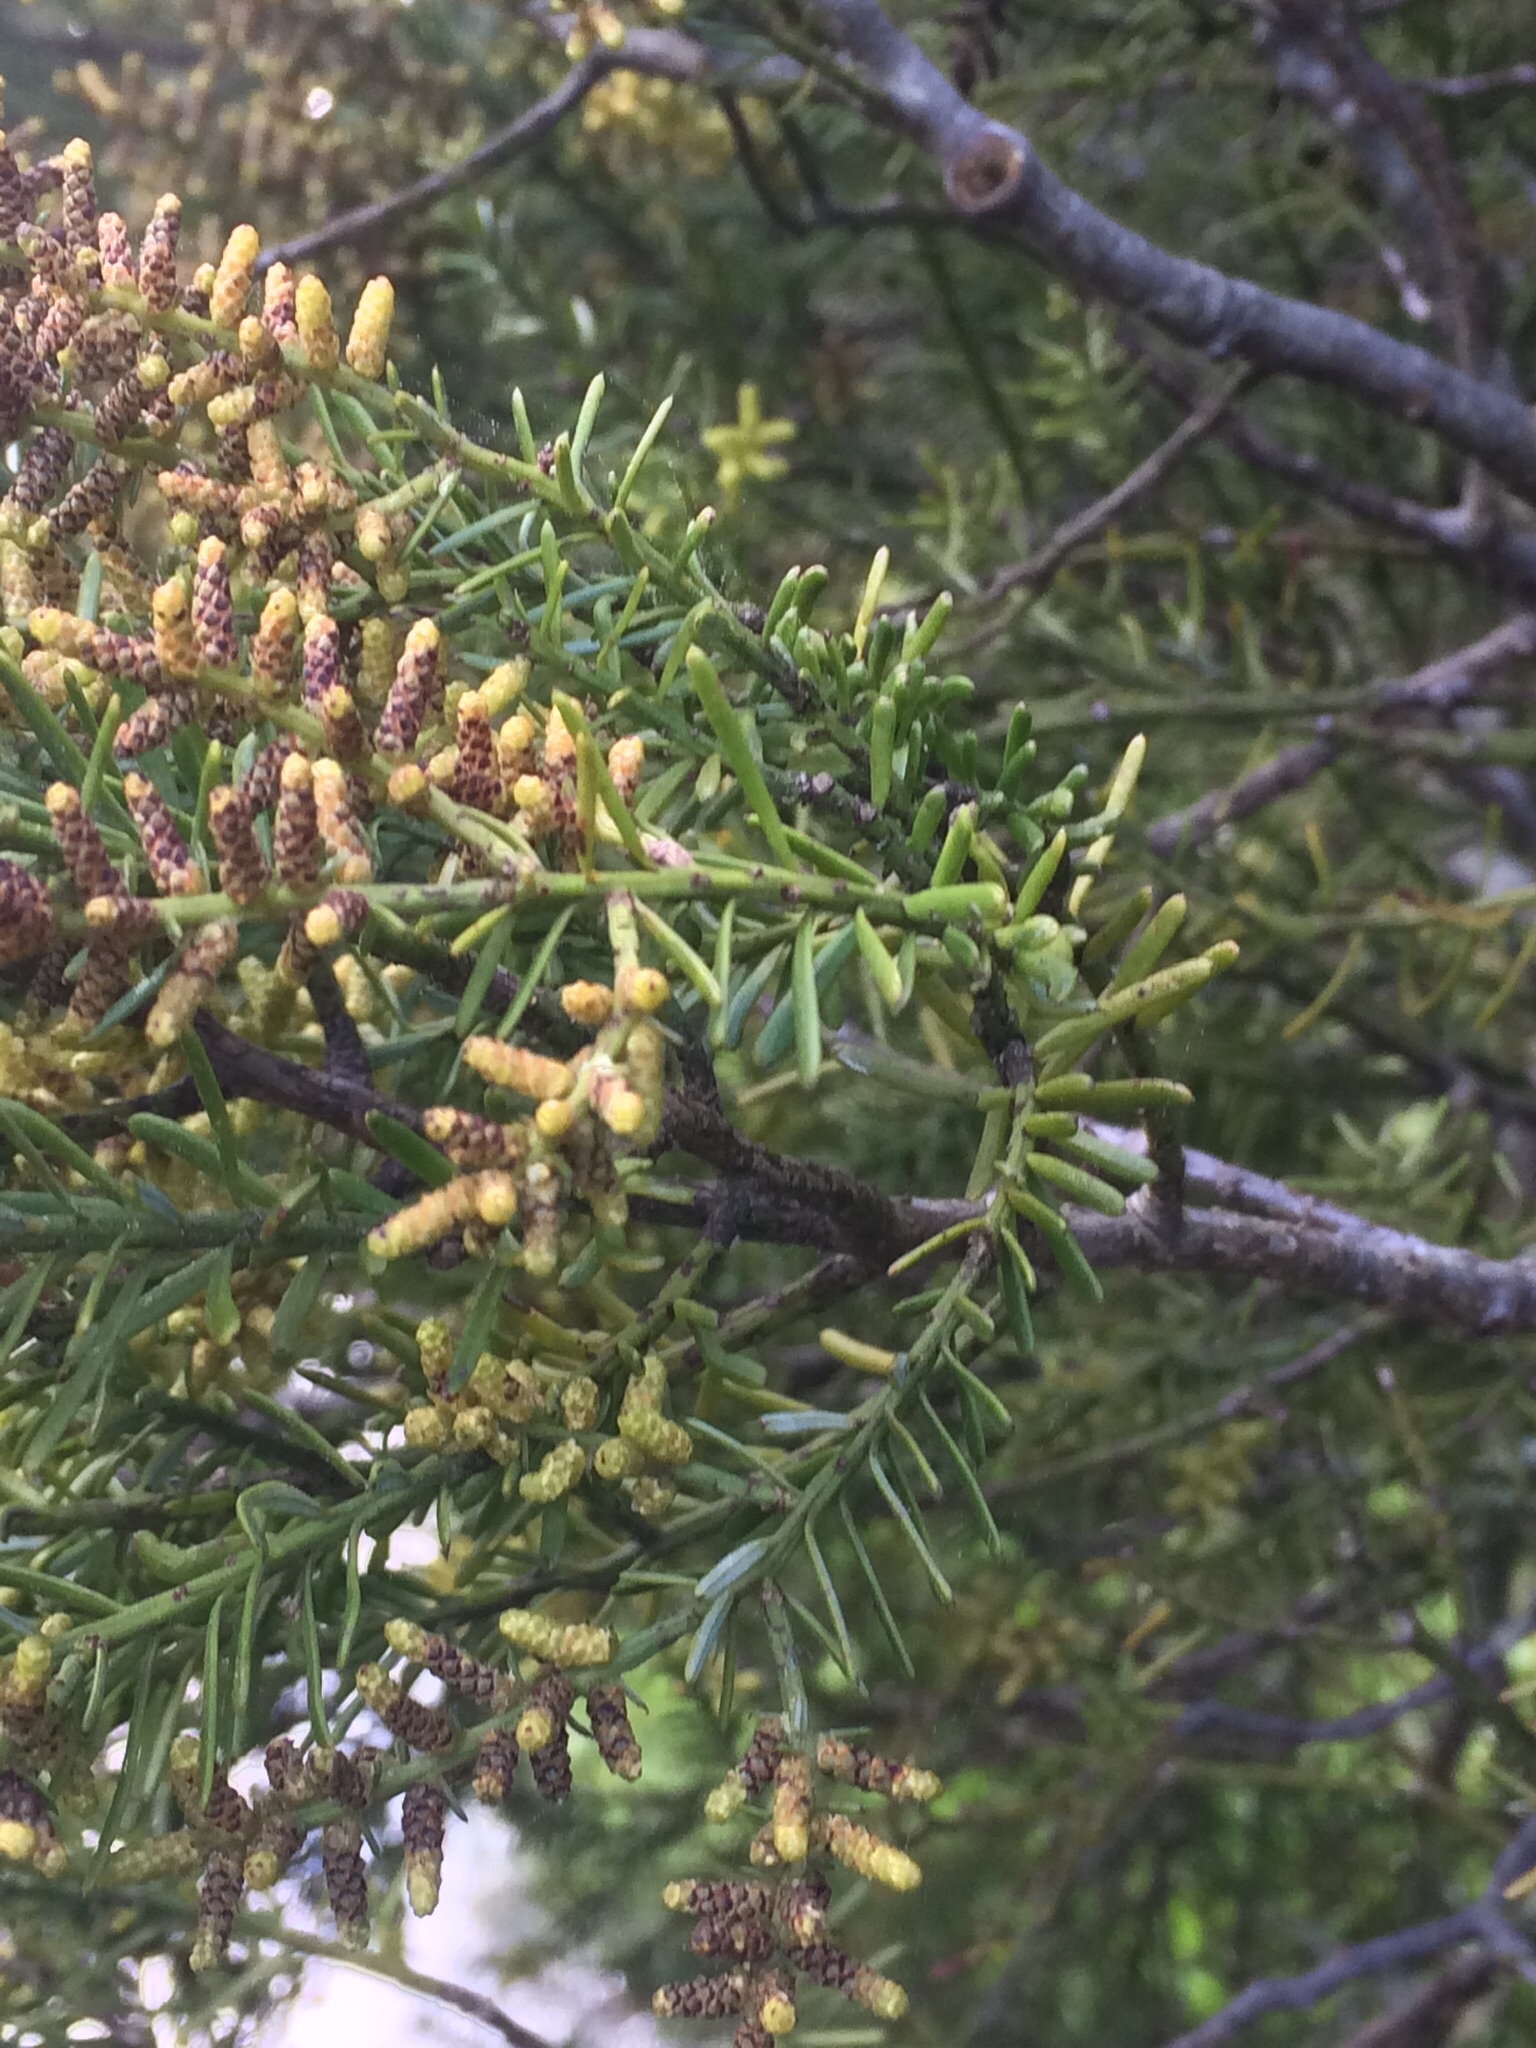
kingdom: Plantae
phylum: Tracheophyta
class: Pinopsida
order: Pinales
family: Podocarpaceae
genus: Prumnopitys
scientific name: Prumnopitys taxifolia
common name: Matai
